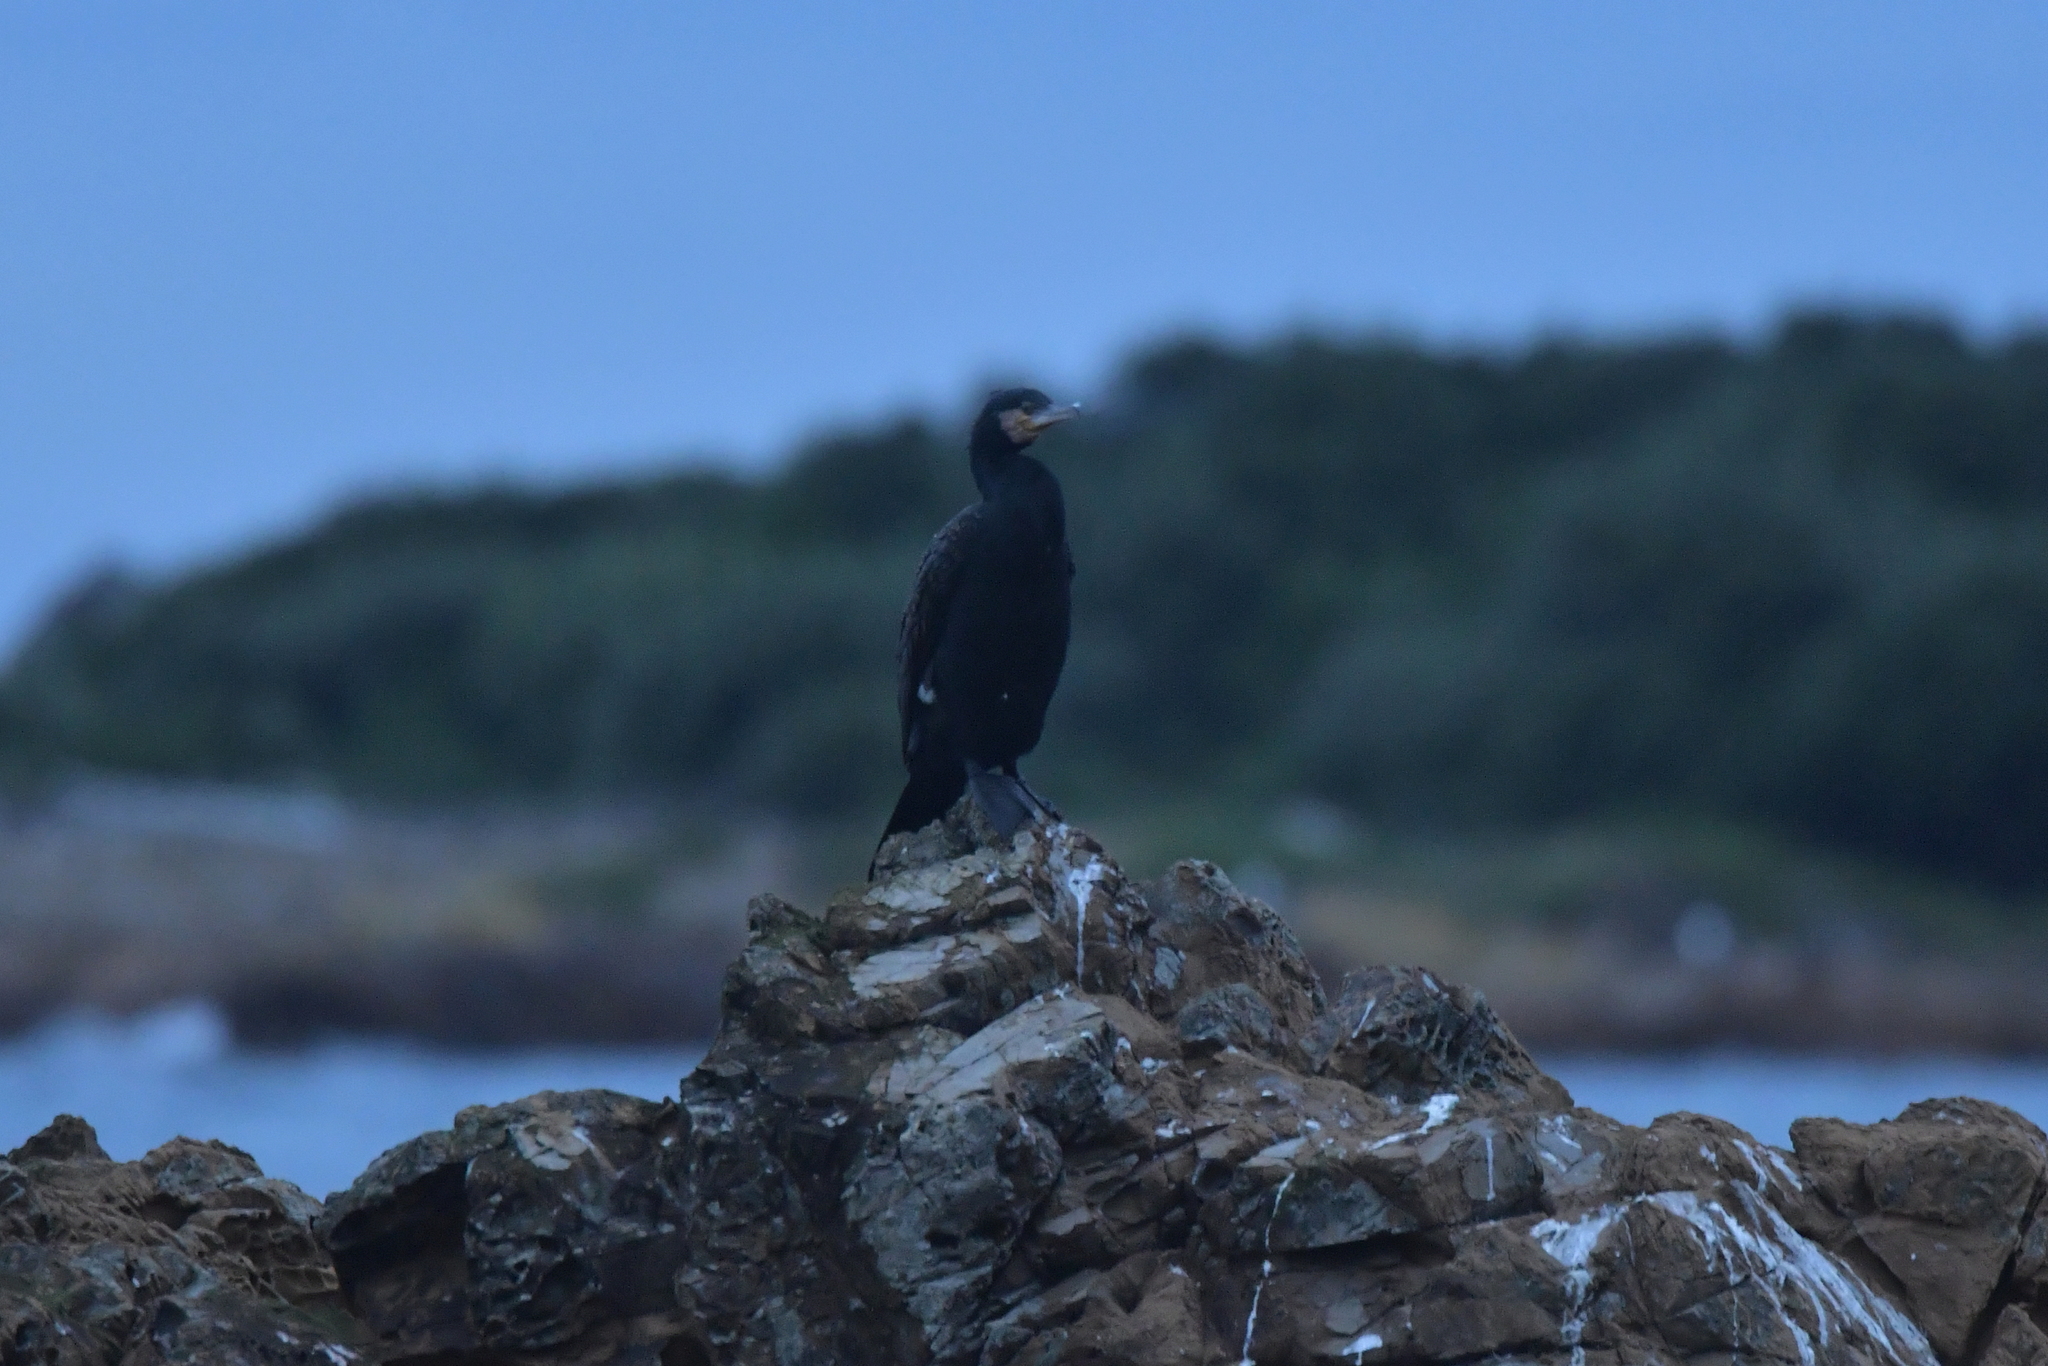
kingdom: Animalia
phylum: Chordata
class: Aves
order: Suliformes
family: Phalacrocoracidae
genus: Phalacrocorax
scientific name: Phalacrocorax carbo
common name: Great cormorant
